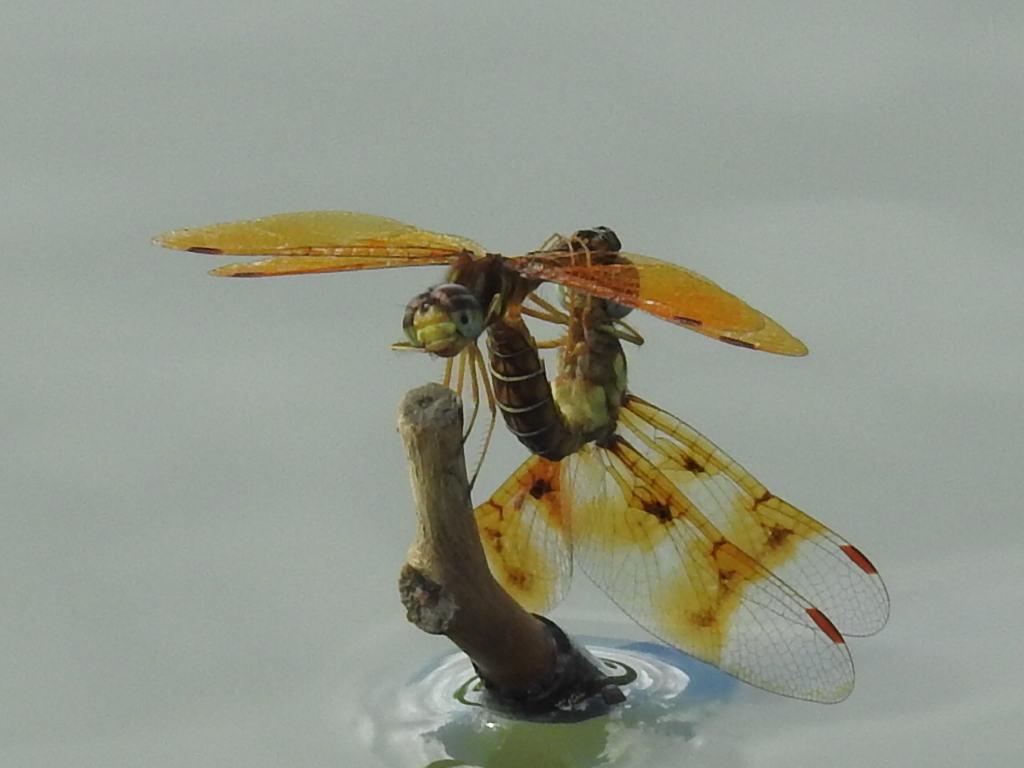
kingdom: Animalia
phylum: Arthropoda
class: Insecta
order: Odonata
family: Libellulidae
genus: Perithemis
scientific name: Perithemis tenera
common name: Eastern amberwing
